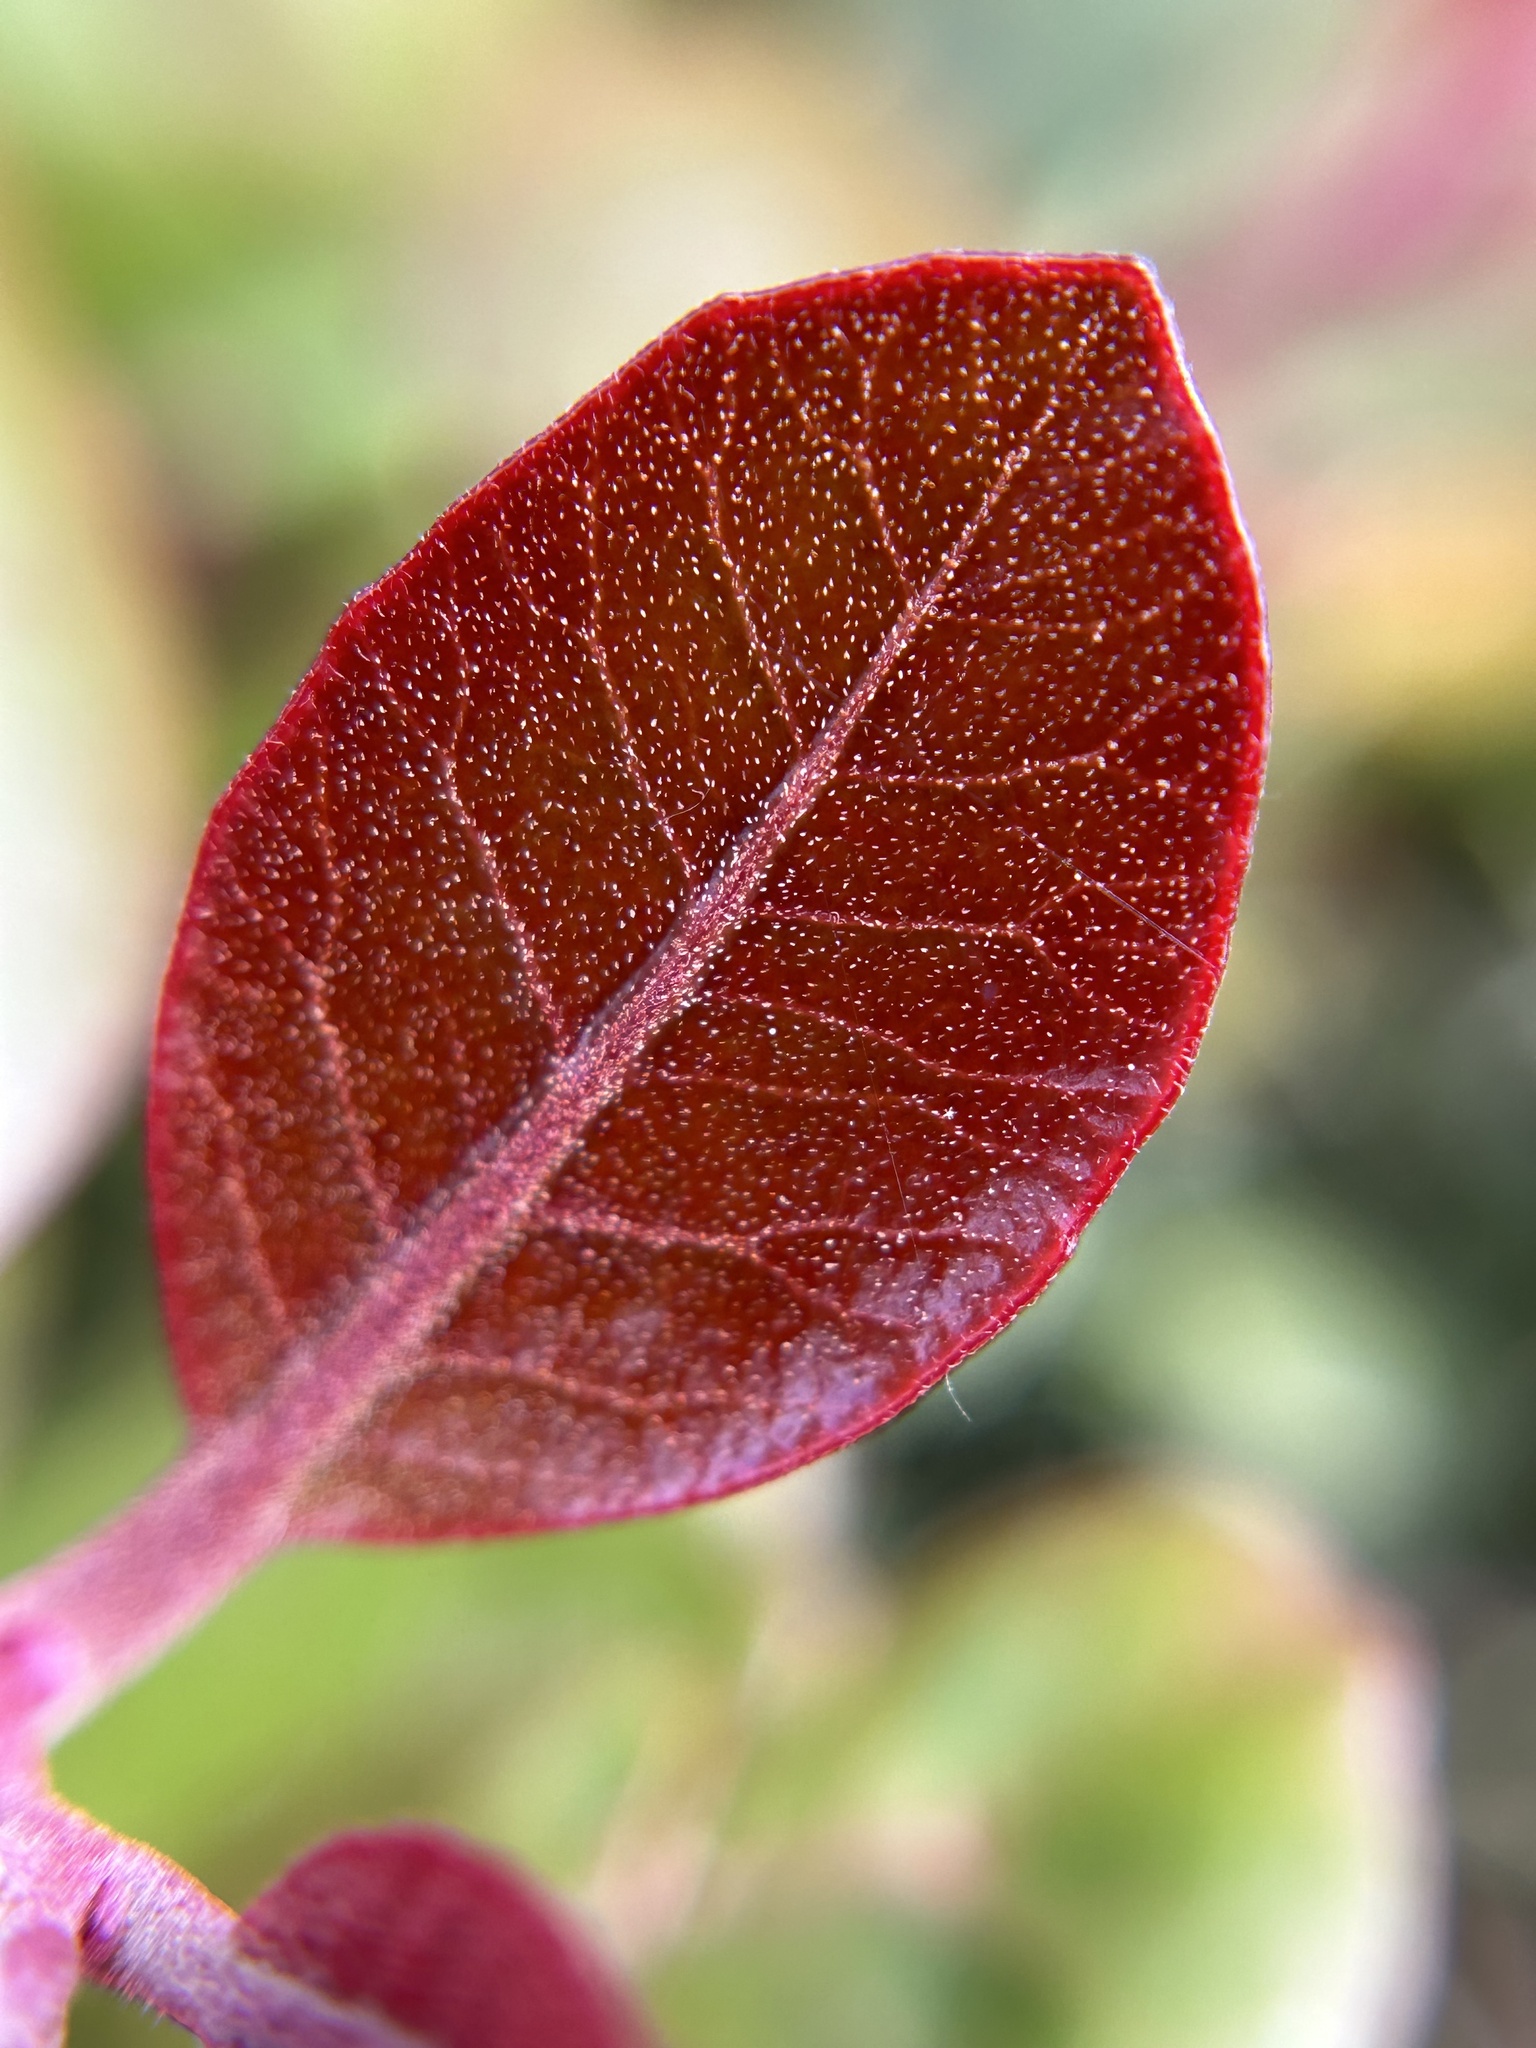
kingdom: Plantae
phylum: Tracheophyta
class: Magnoliopsida
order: Sapindales
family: Anacardiaceae
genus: Rhus
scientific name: Rhus integrifolia
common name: Lemonade sumac
